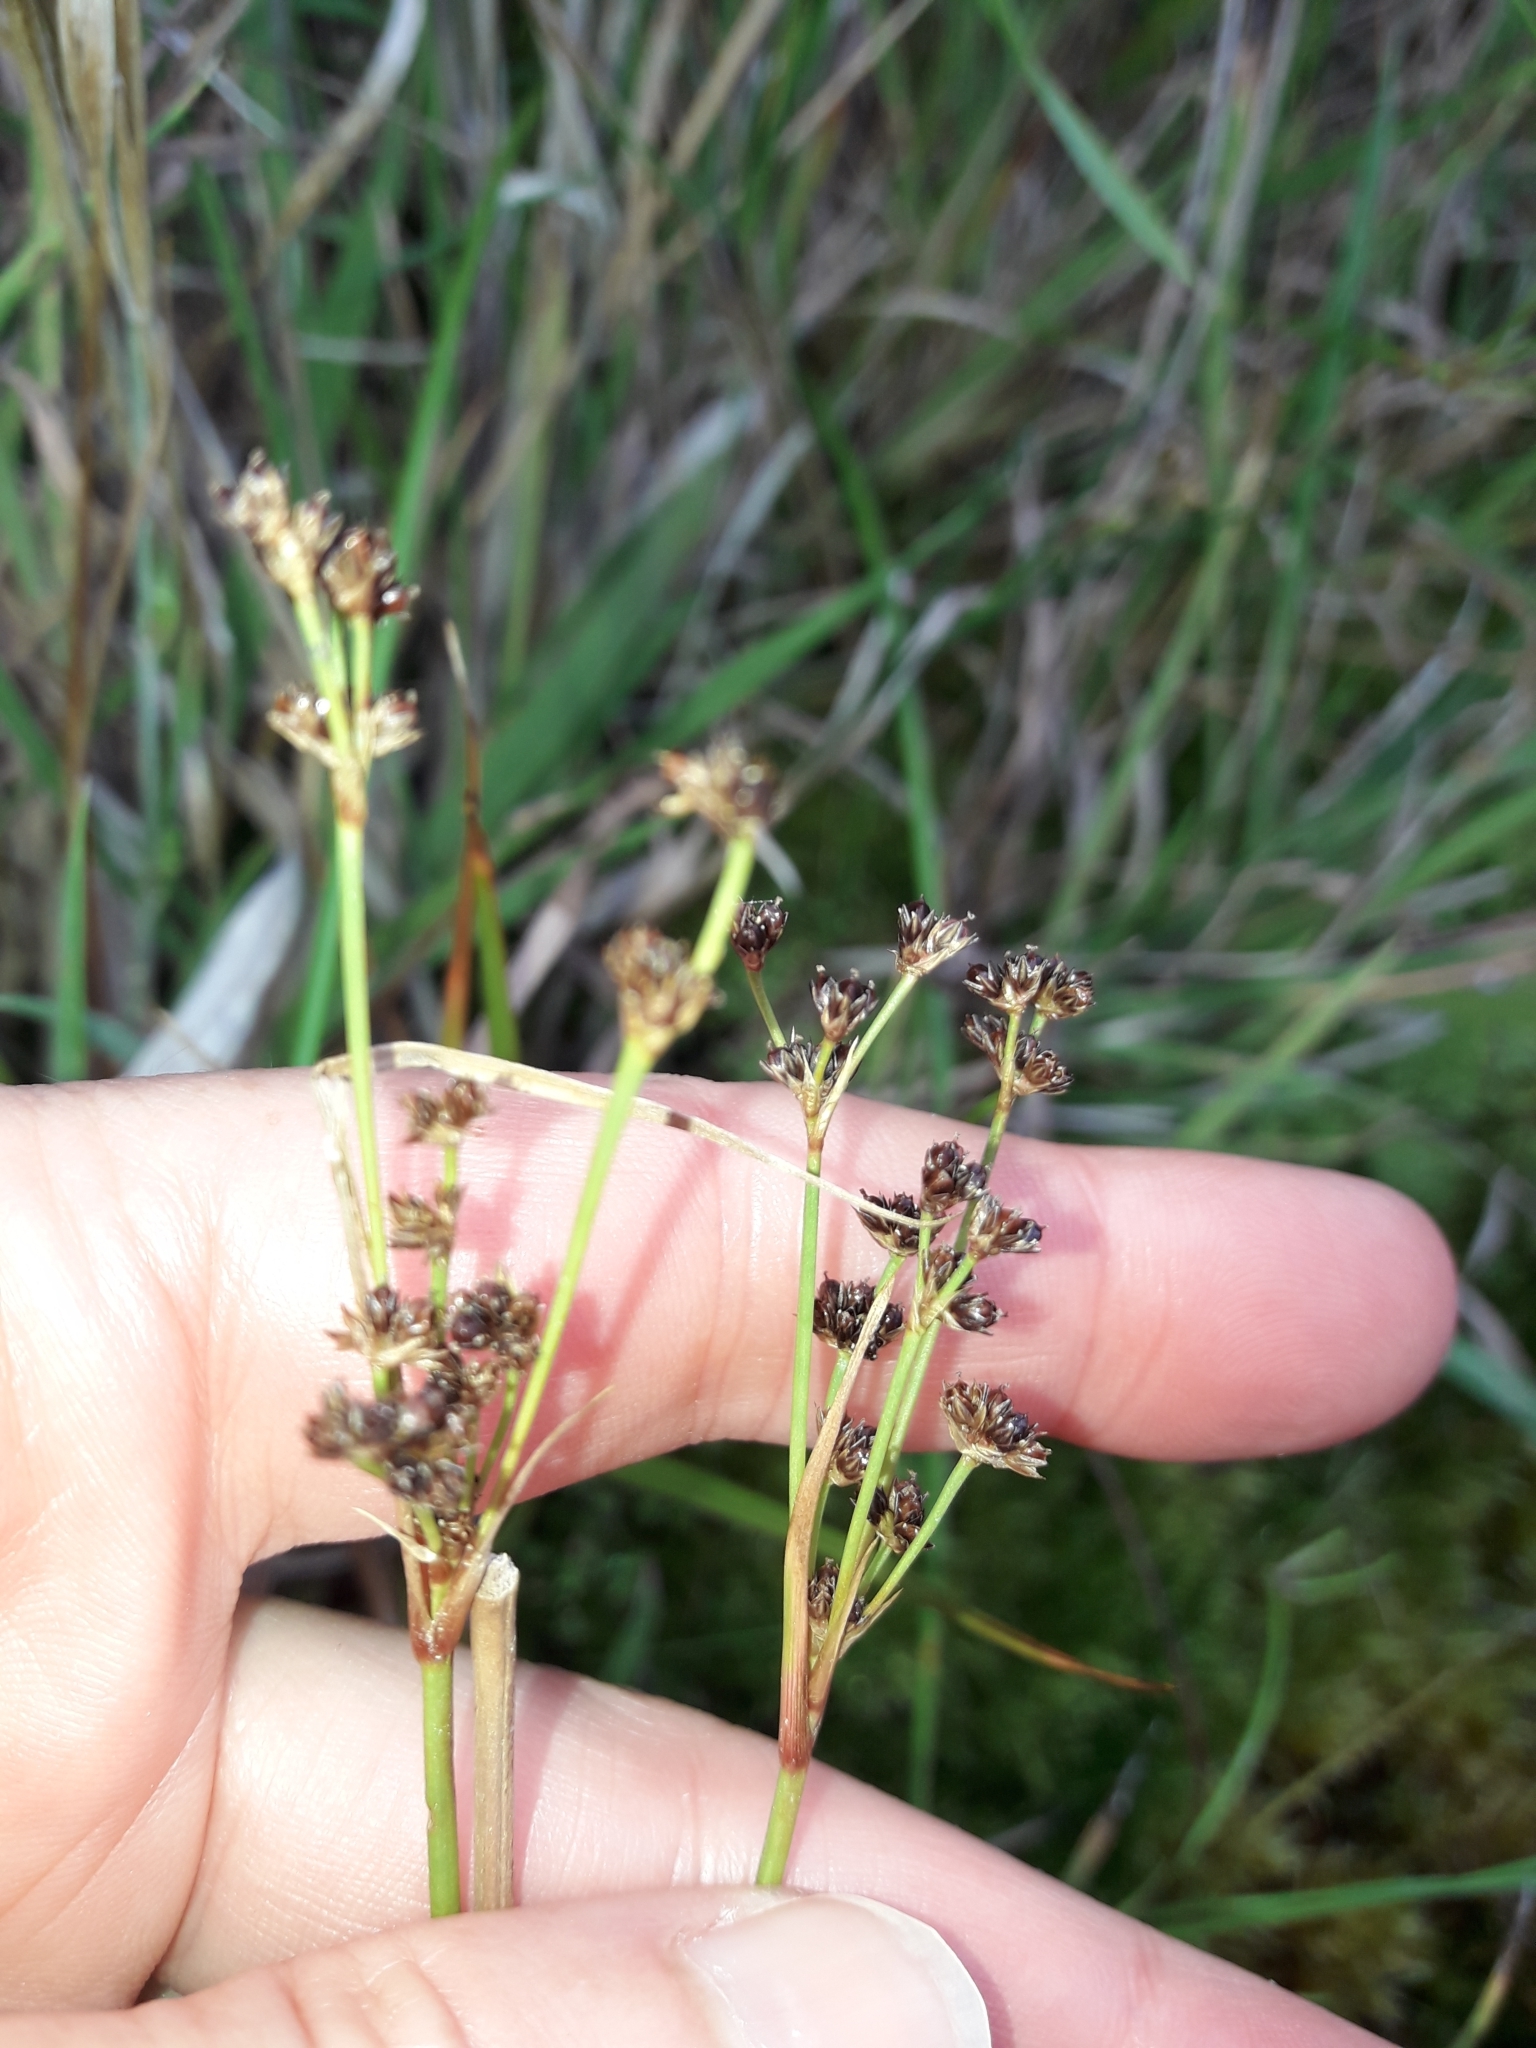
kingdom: Plantae
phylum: Tracheophyta
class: Liliopsida
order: Poales
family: Juncaceae
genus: Juncus
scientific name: Juncus planifolius
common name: Broadleaf rush
